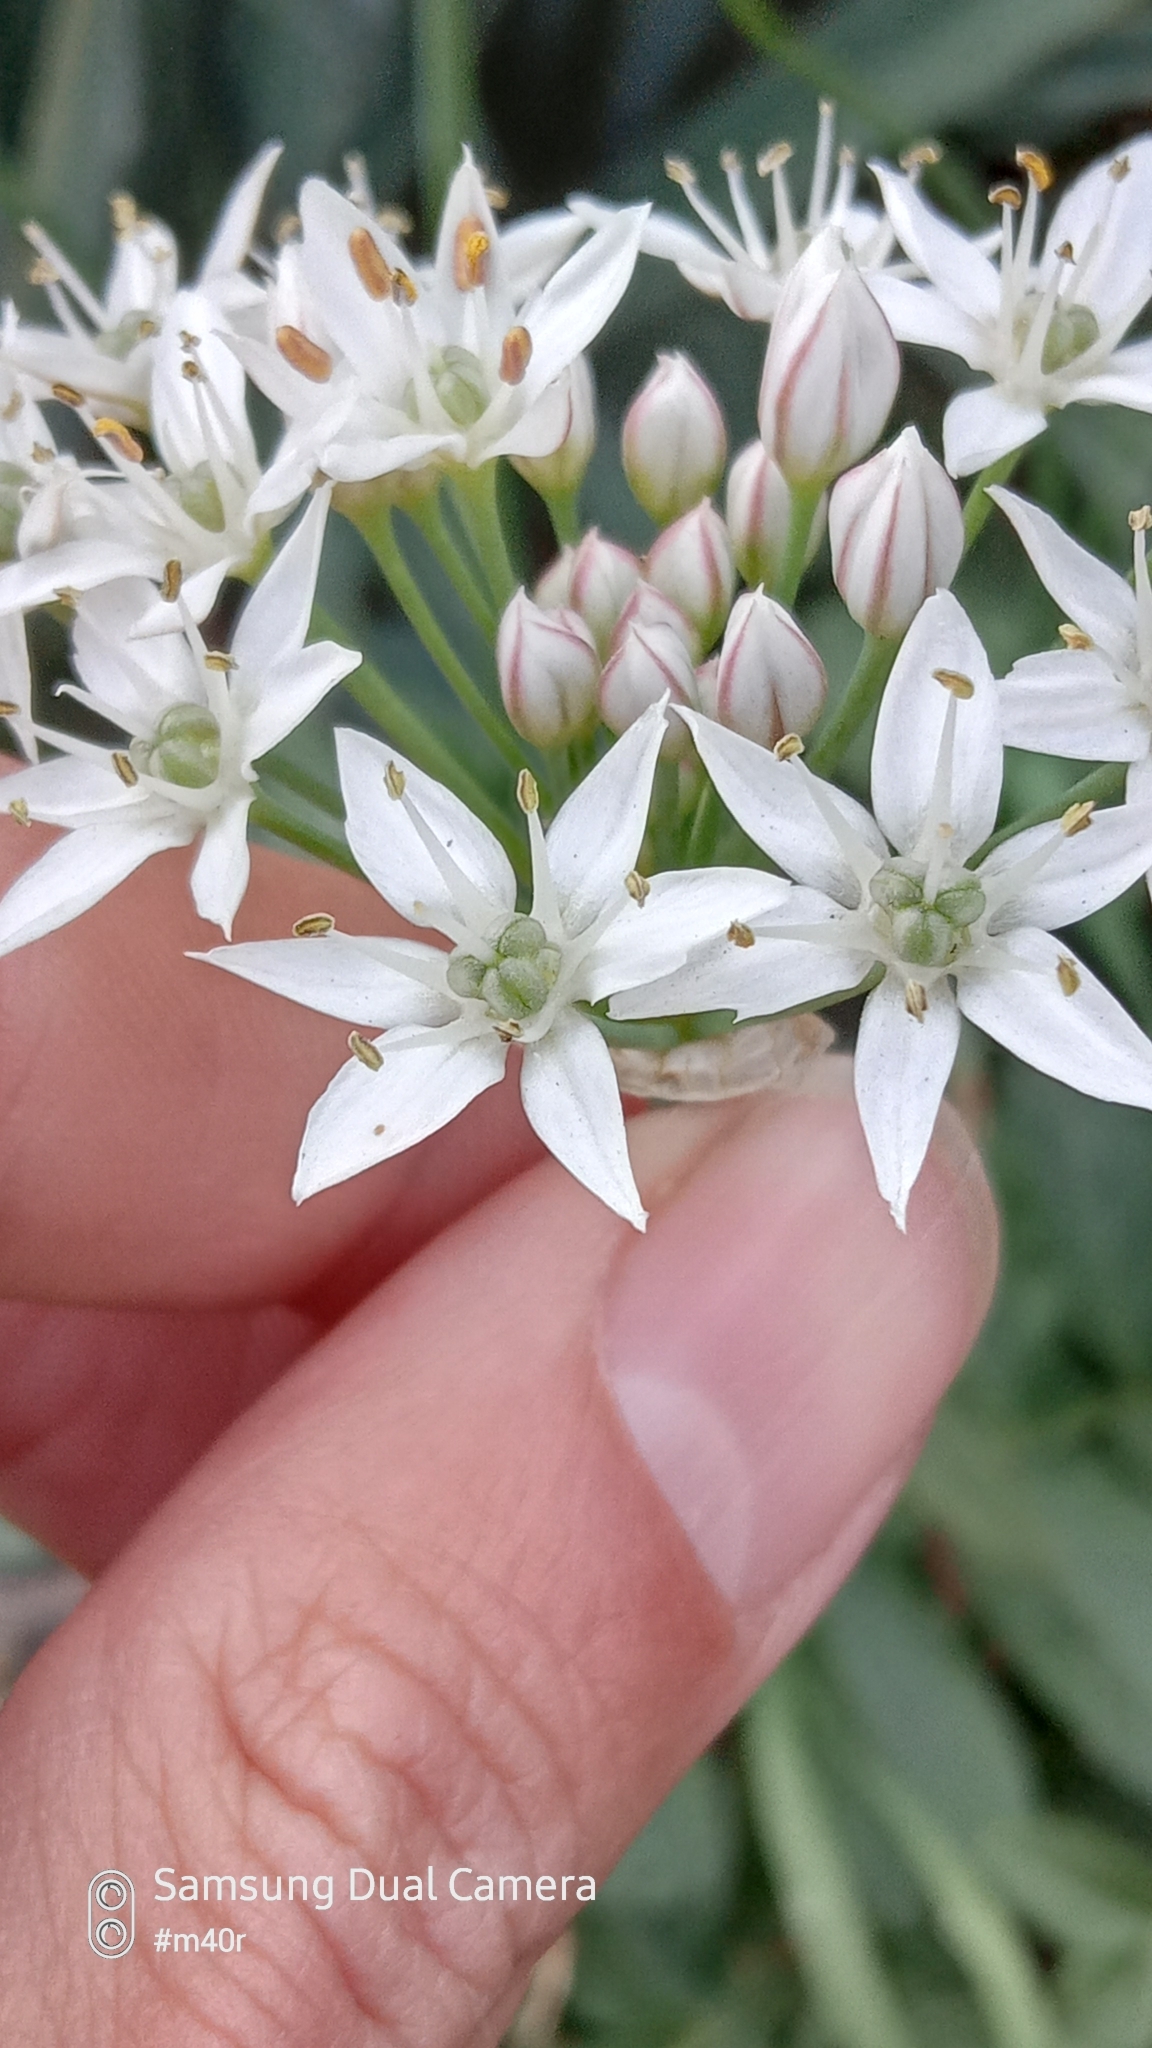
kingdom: Plantae
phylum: Tracheophyta
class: Liliopsida
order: Asparagales
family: Amaryllidaceae
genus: Allium
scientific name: Allium ramosum
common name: Fragrant garlic
